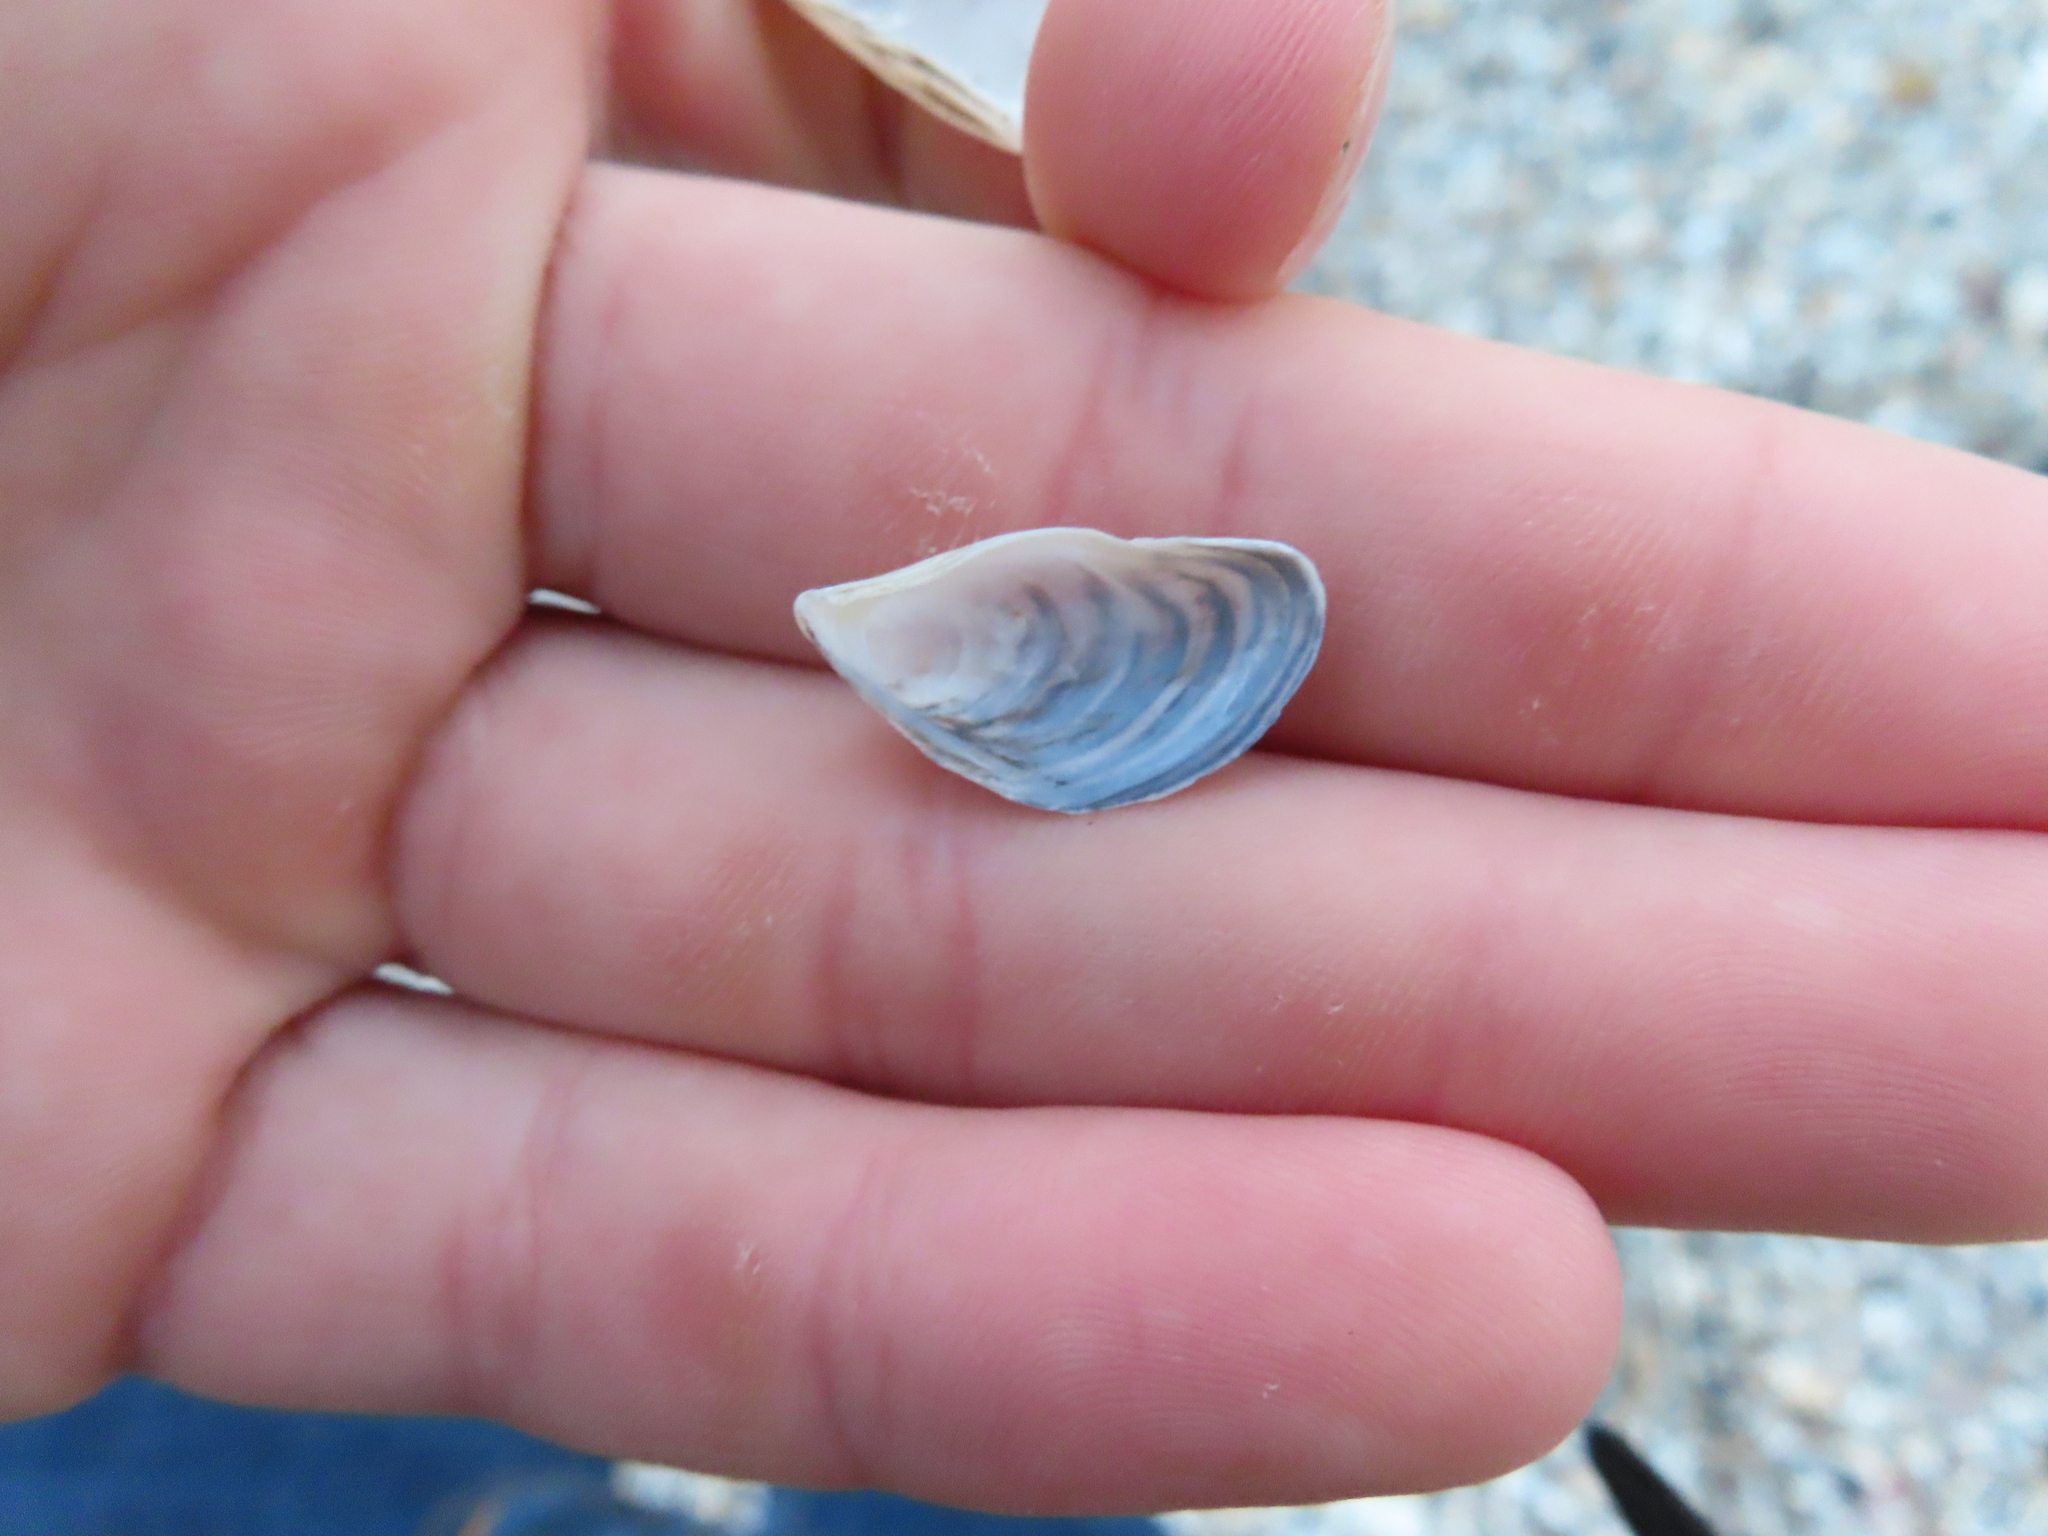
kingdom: Animalia
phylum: Mollusca
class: Bivalvia
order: Myida
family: Dreissenidae
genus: Dreissena
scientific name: Dreissena polymorpha
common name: Zebra mussel
